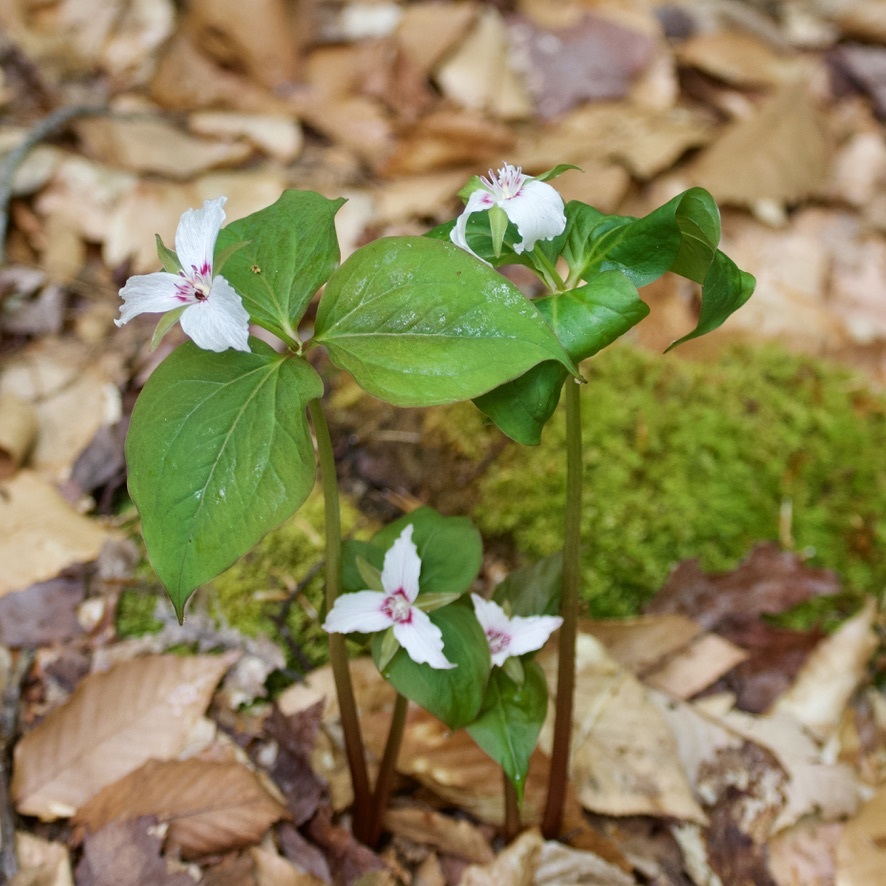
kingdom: Plantae
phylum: Tracheophyta
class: Liliopsida
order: Liliales
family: Melanthiaceae
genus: Trillium
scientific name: Trillium undulatum
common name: Paint trillium
